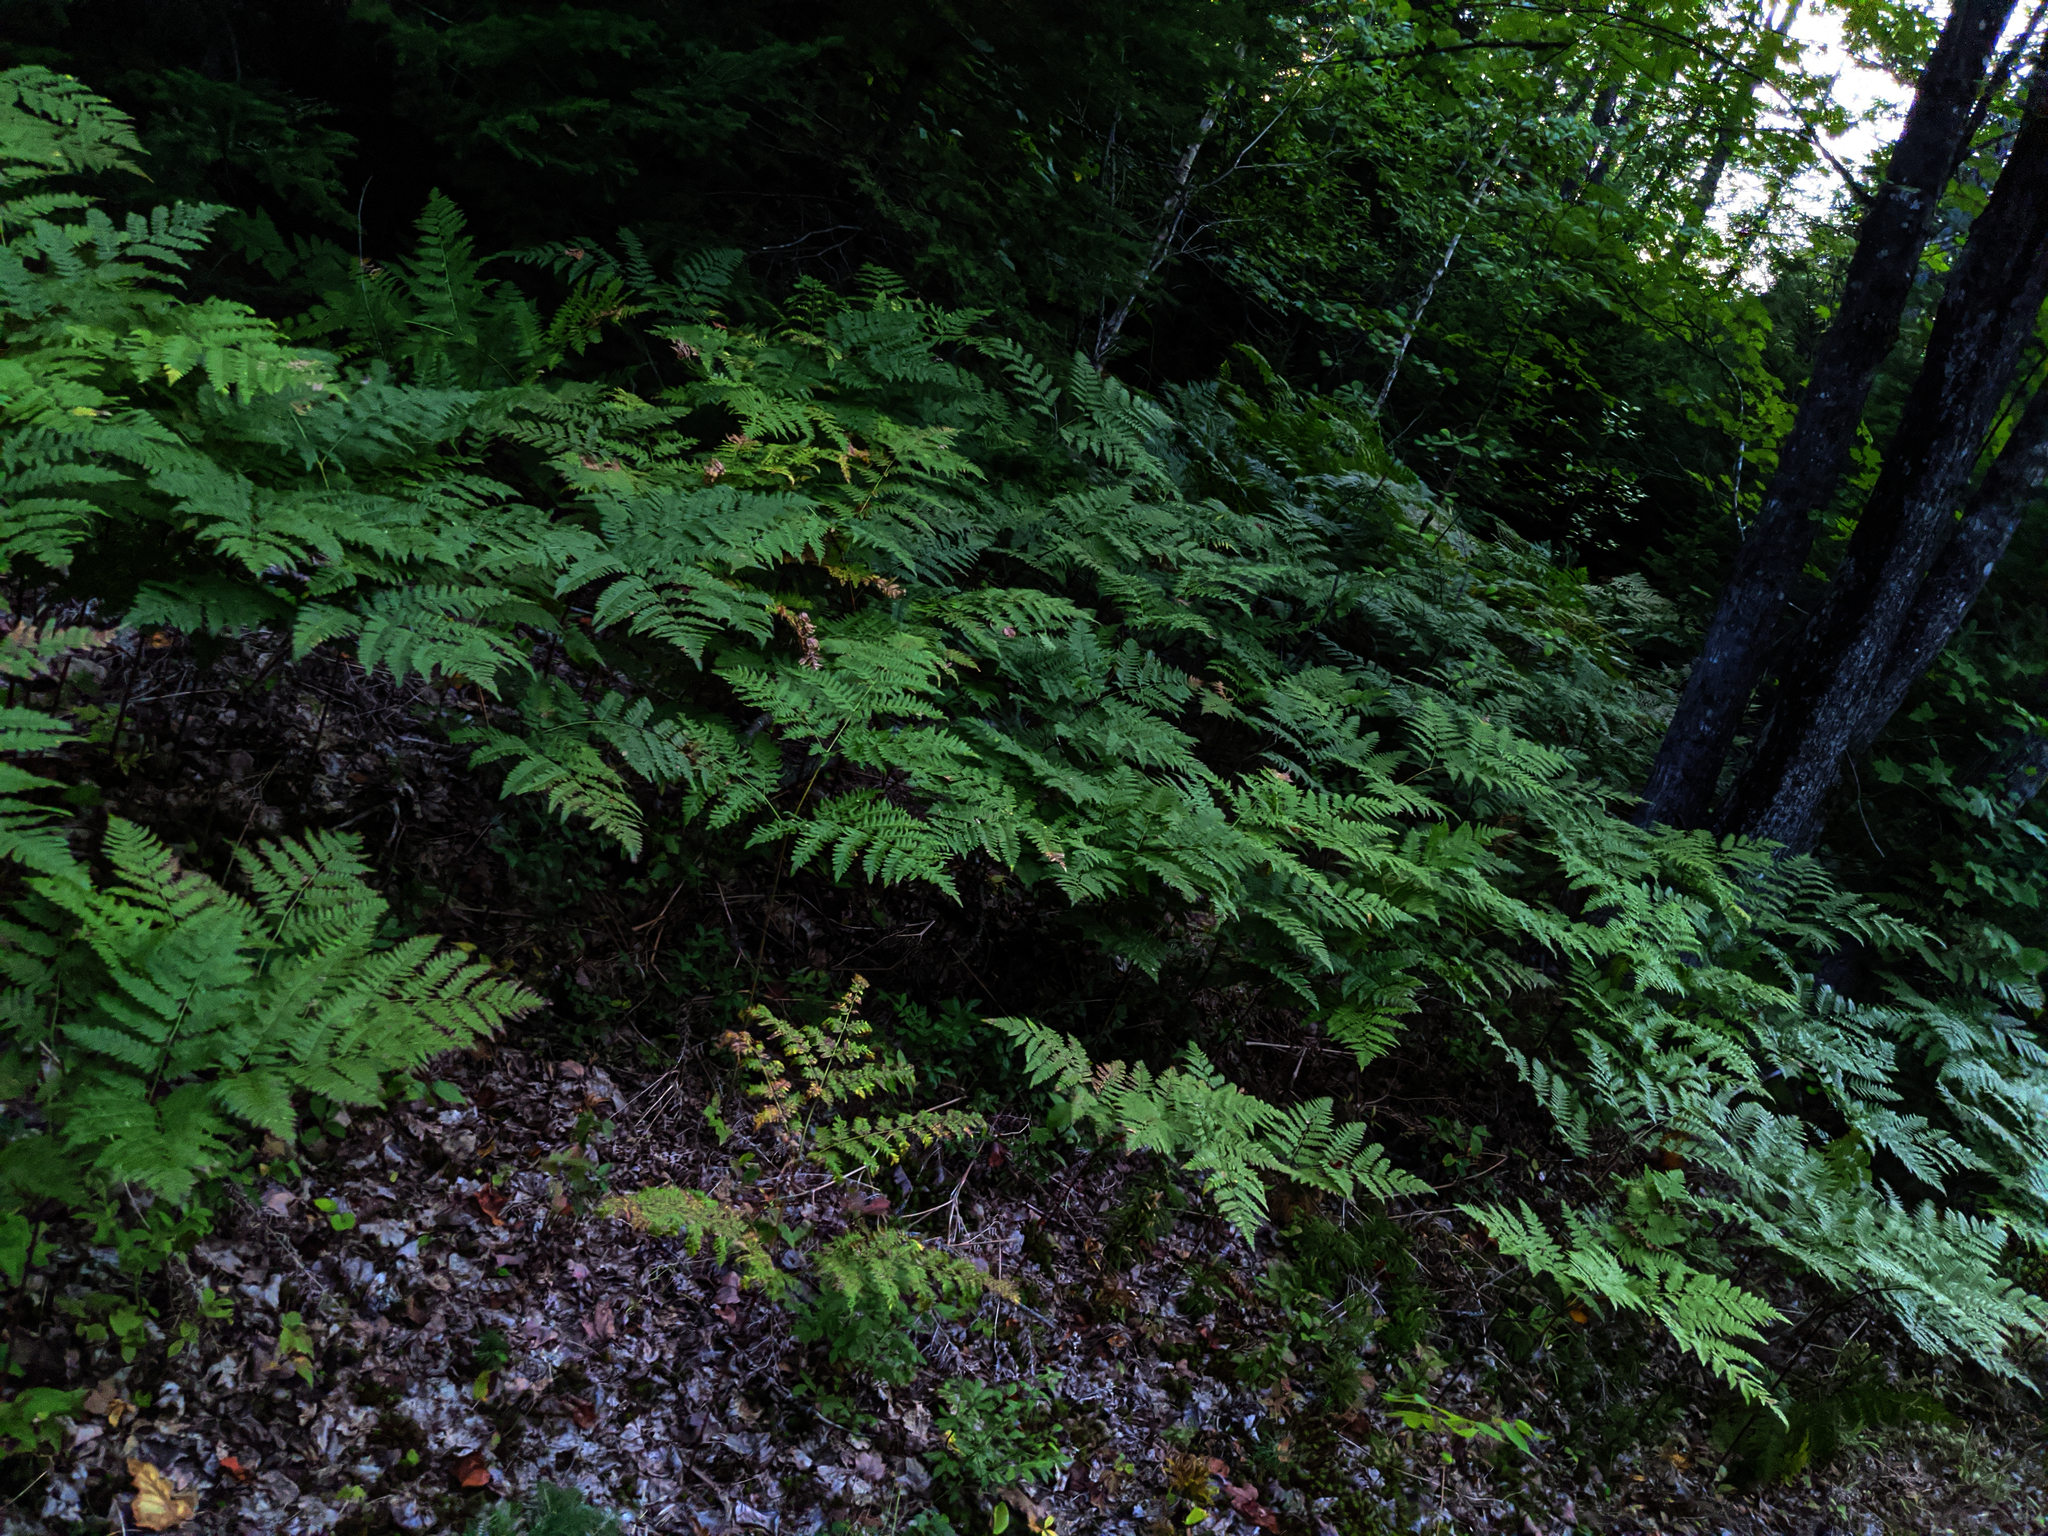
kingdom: Plantae
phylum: Tracheophyta
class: Polypodiopsida
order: Polypodiales
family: Dennstaedtiaceae
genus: Pteridium
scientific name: Pteridium aquilinum
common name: Bracken
